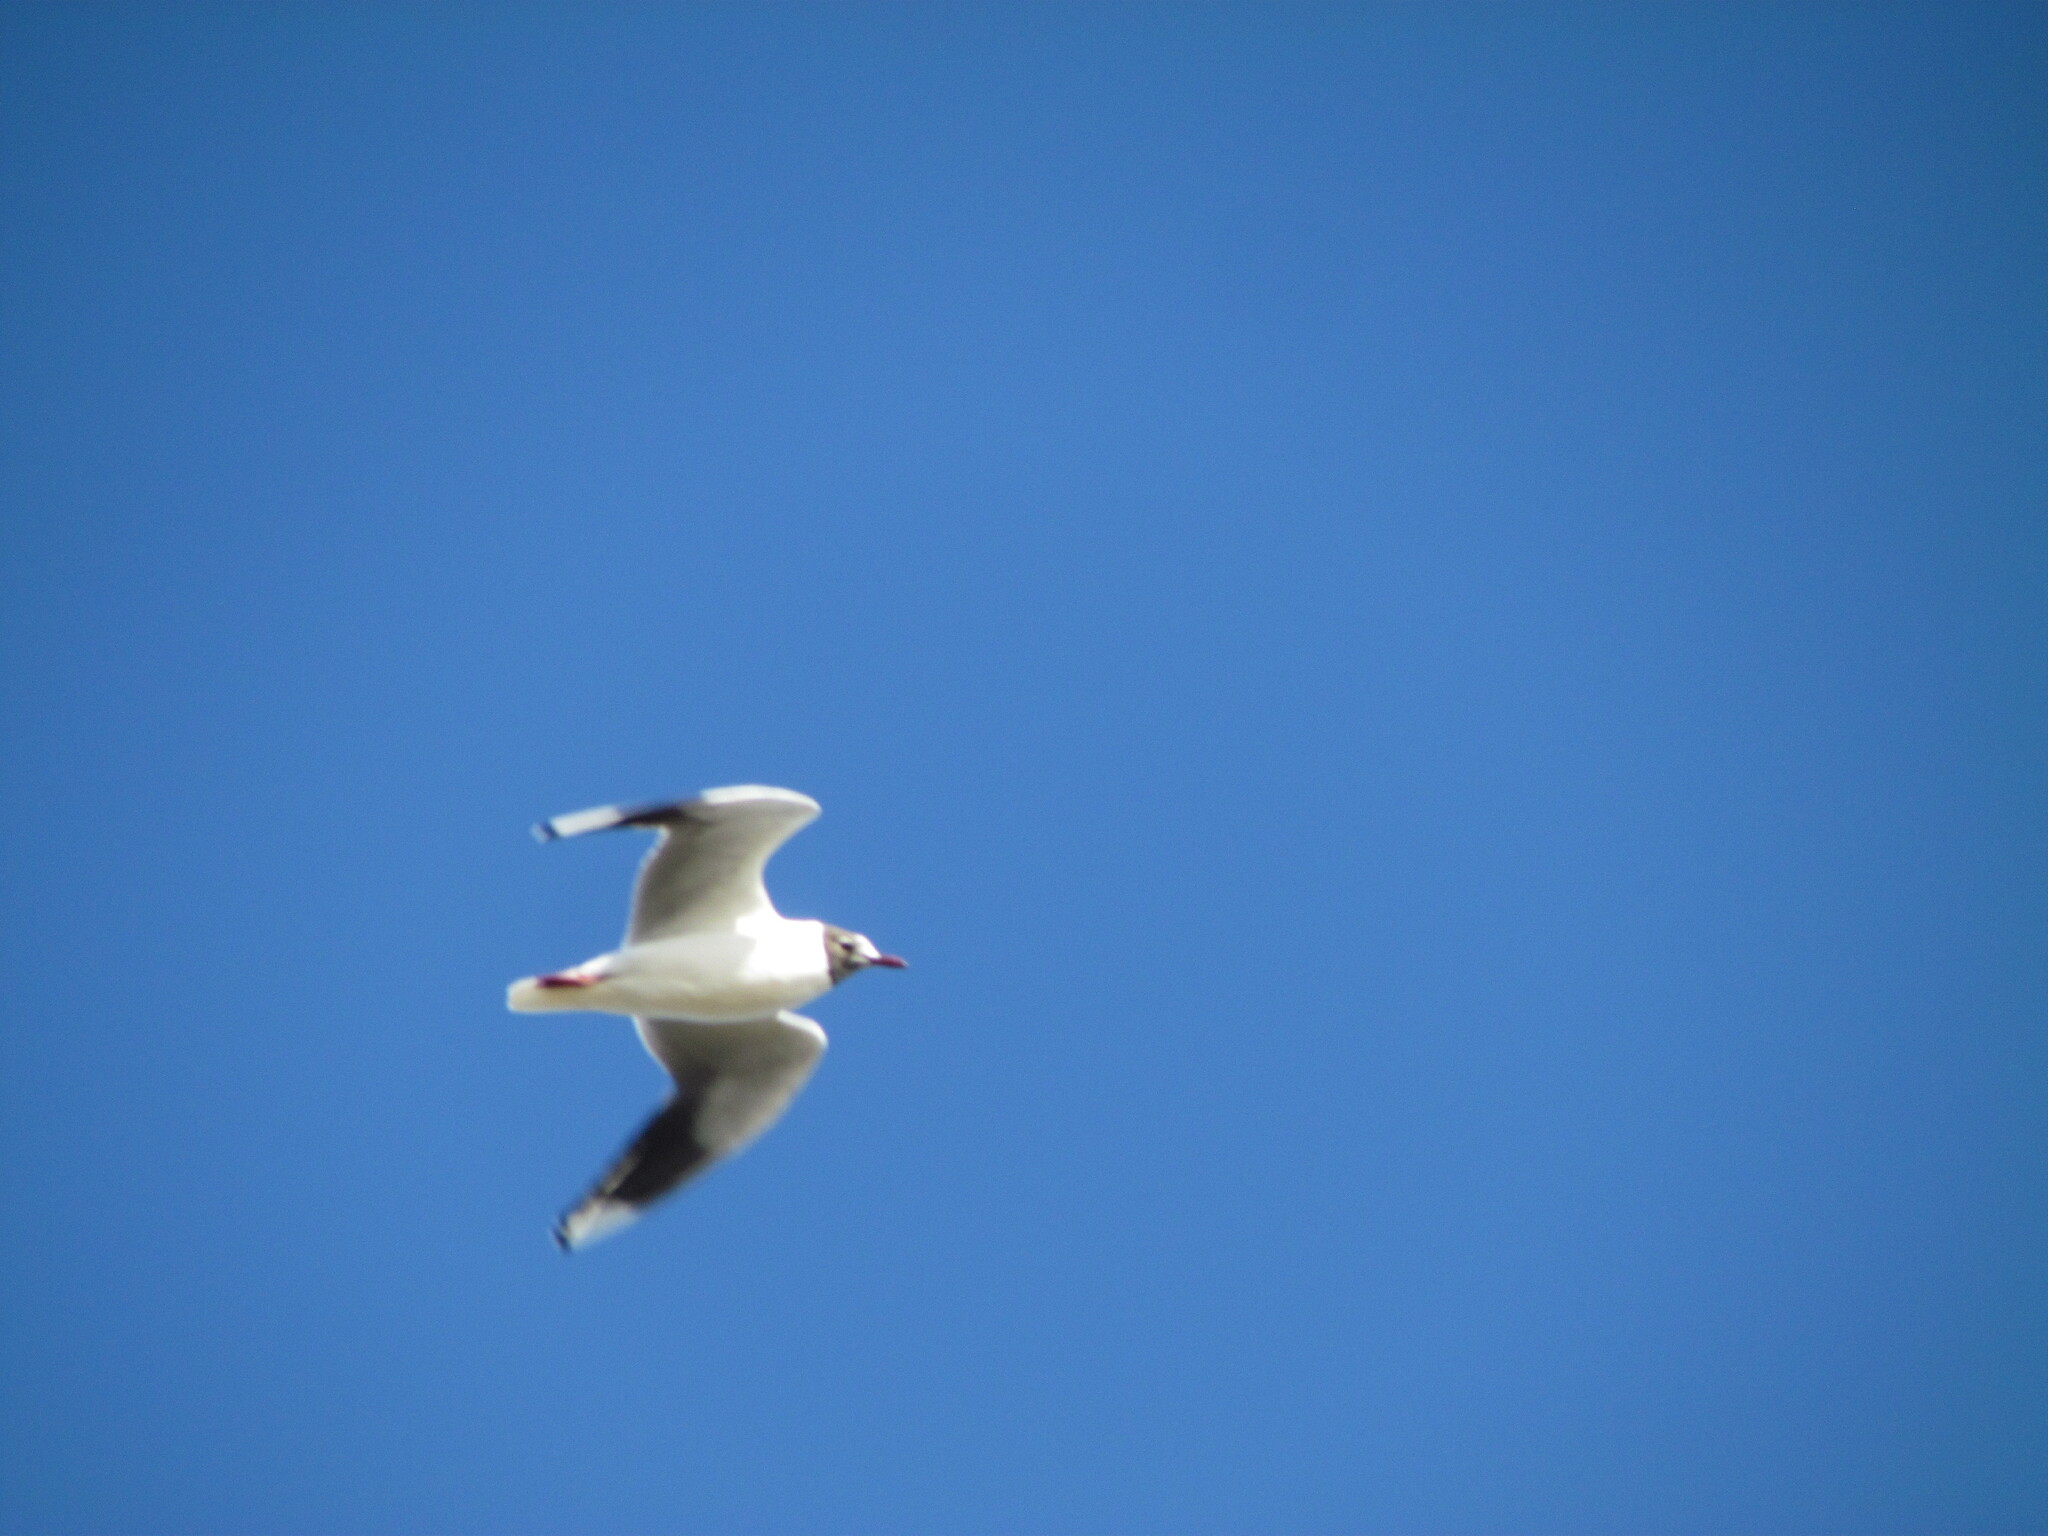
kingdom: Animalia
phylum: Chordata
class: Aves
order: Charadriiformes
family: Laridae
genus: Chroicocephalus
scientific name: Chroicocephalus maculipennis
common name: Brown-hooded gull
